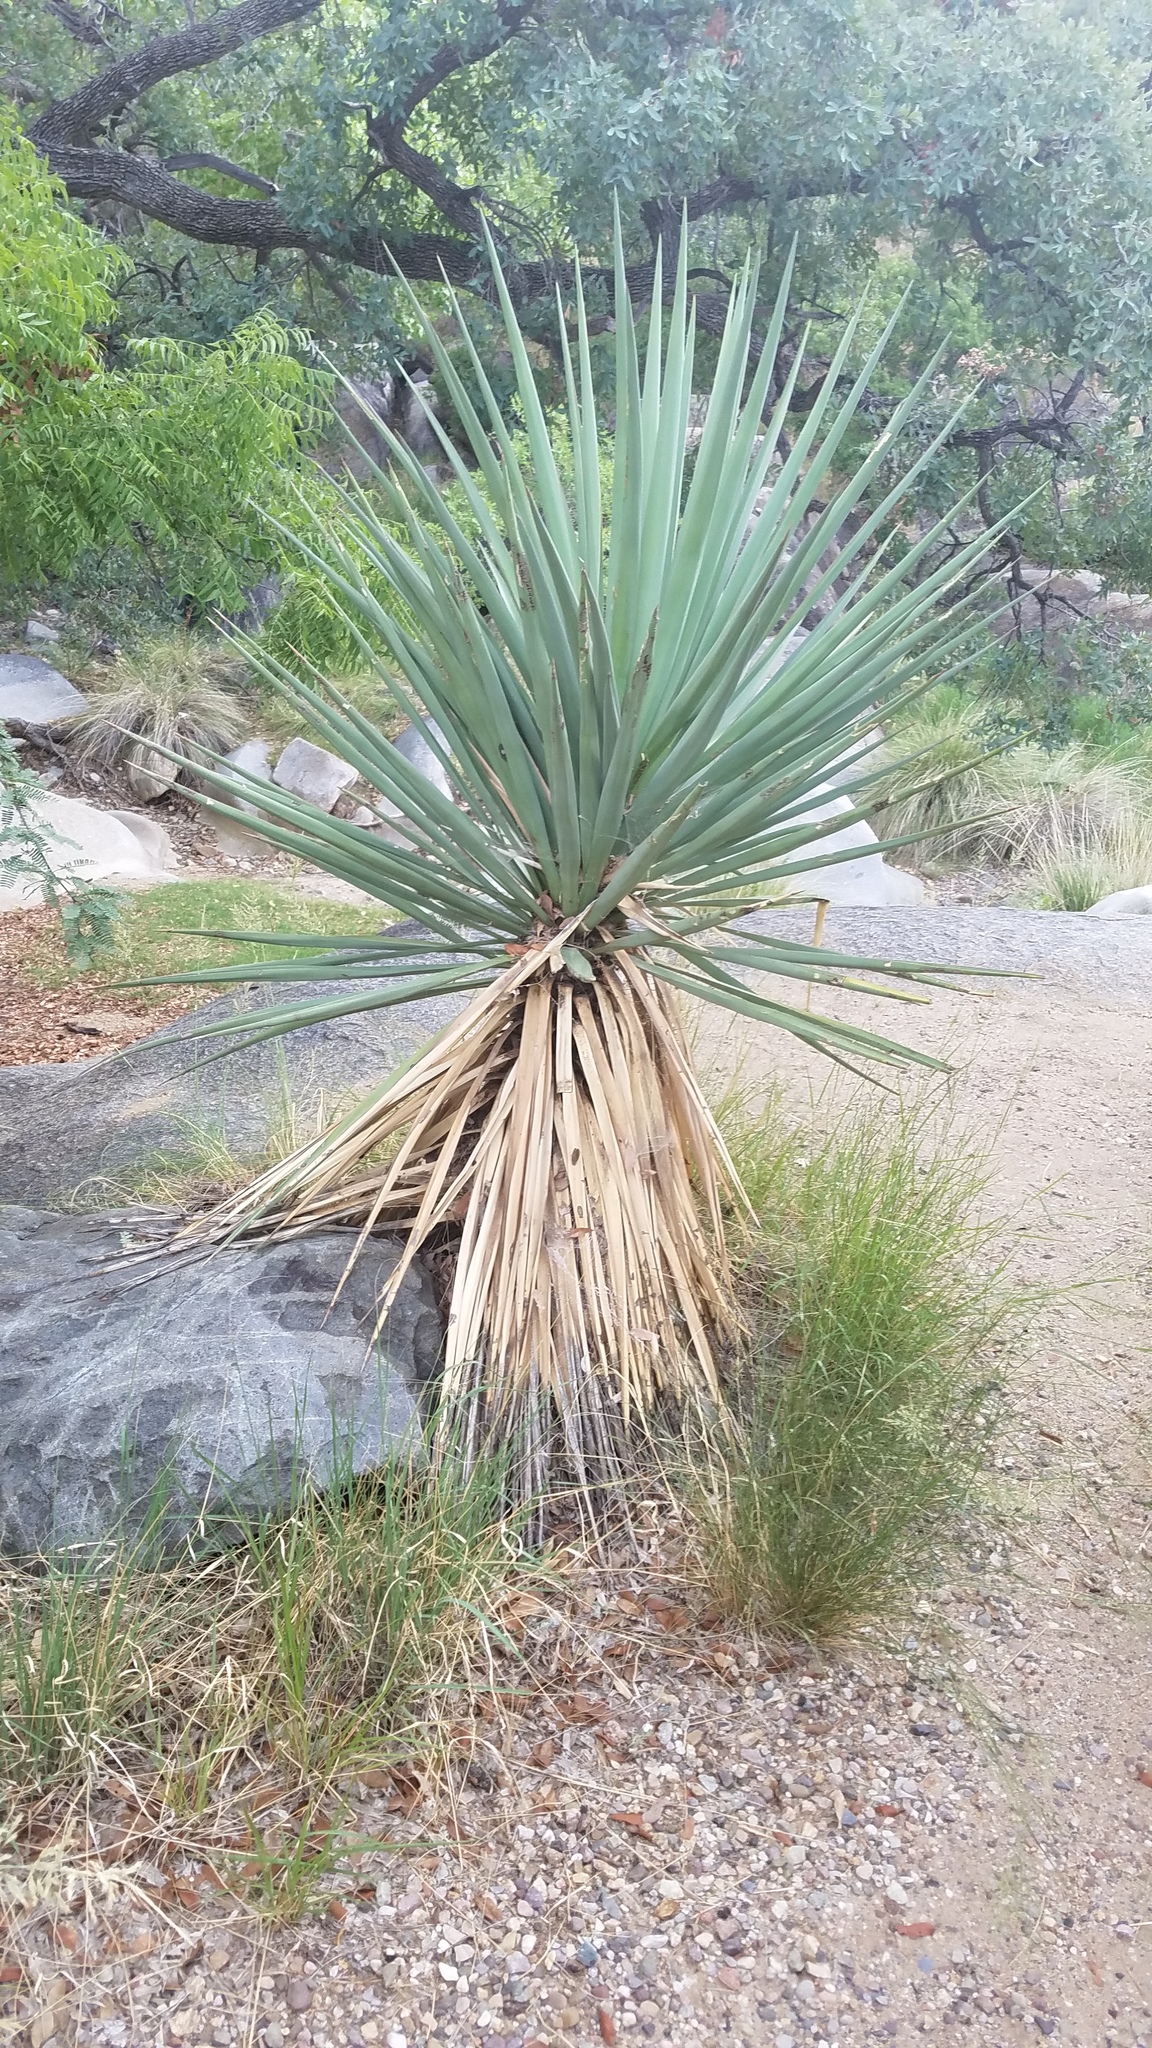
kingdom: Plantae
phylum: Tracheophyta
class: Liliopsida
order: Asparagales
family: Asparagaceae
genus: Yucca
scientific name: Yucca madrensis
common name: Hoary yucca
